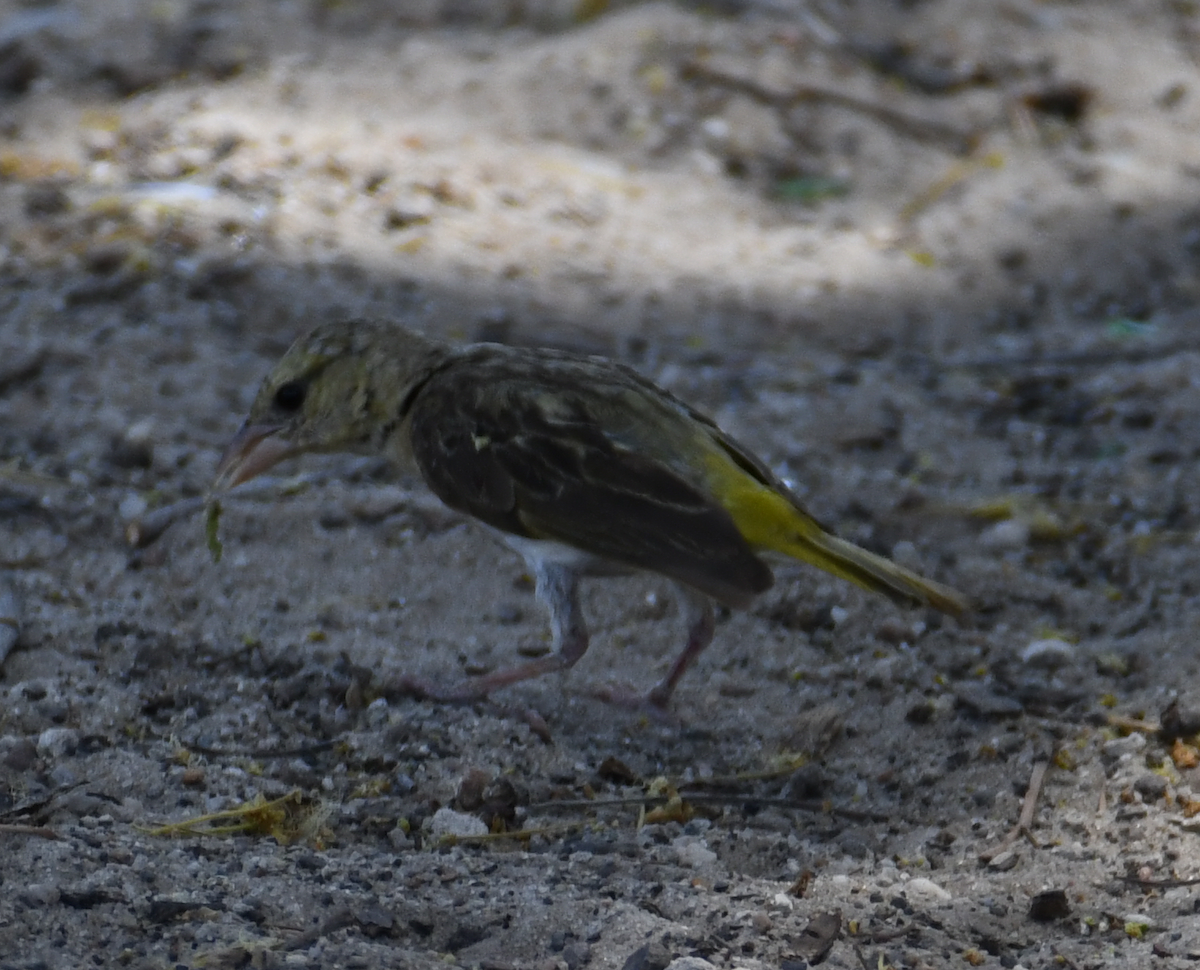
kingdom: Animalia
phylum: Chordata
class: Aves
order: Passeriformes
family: Ploceidae
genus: Ploceus
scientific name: Ploceus velatus
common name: Southern masked weaver
